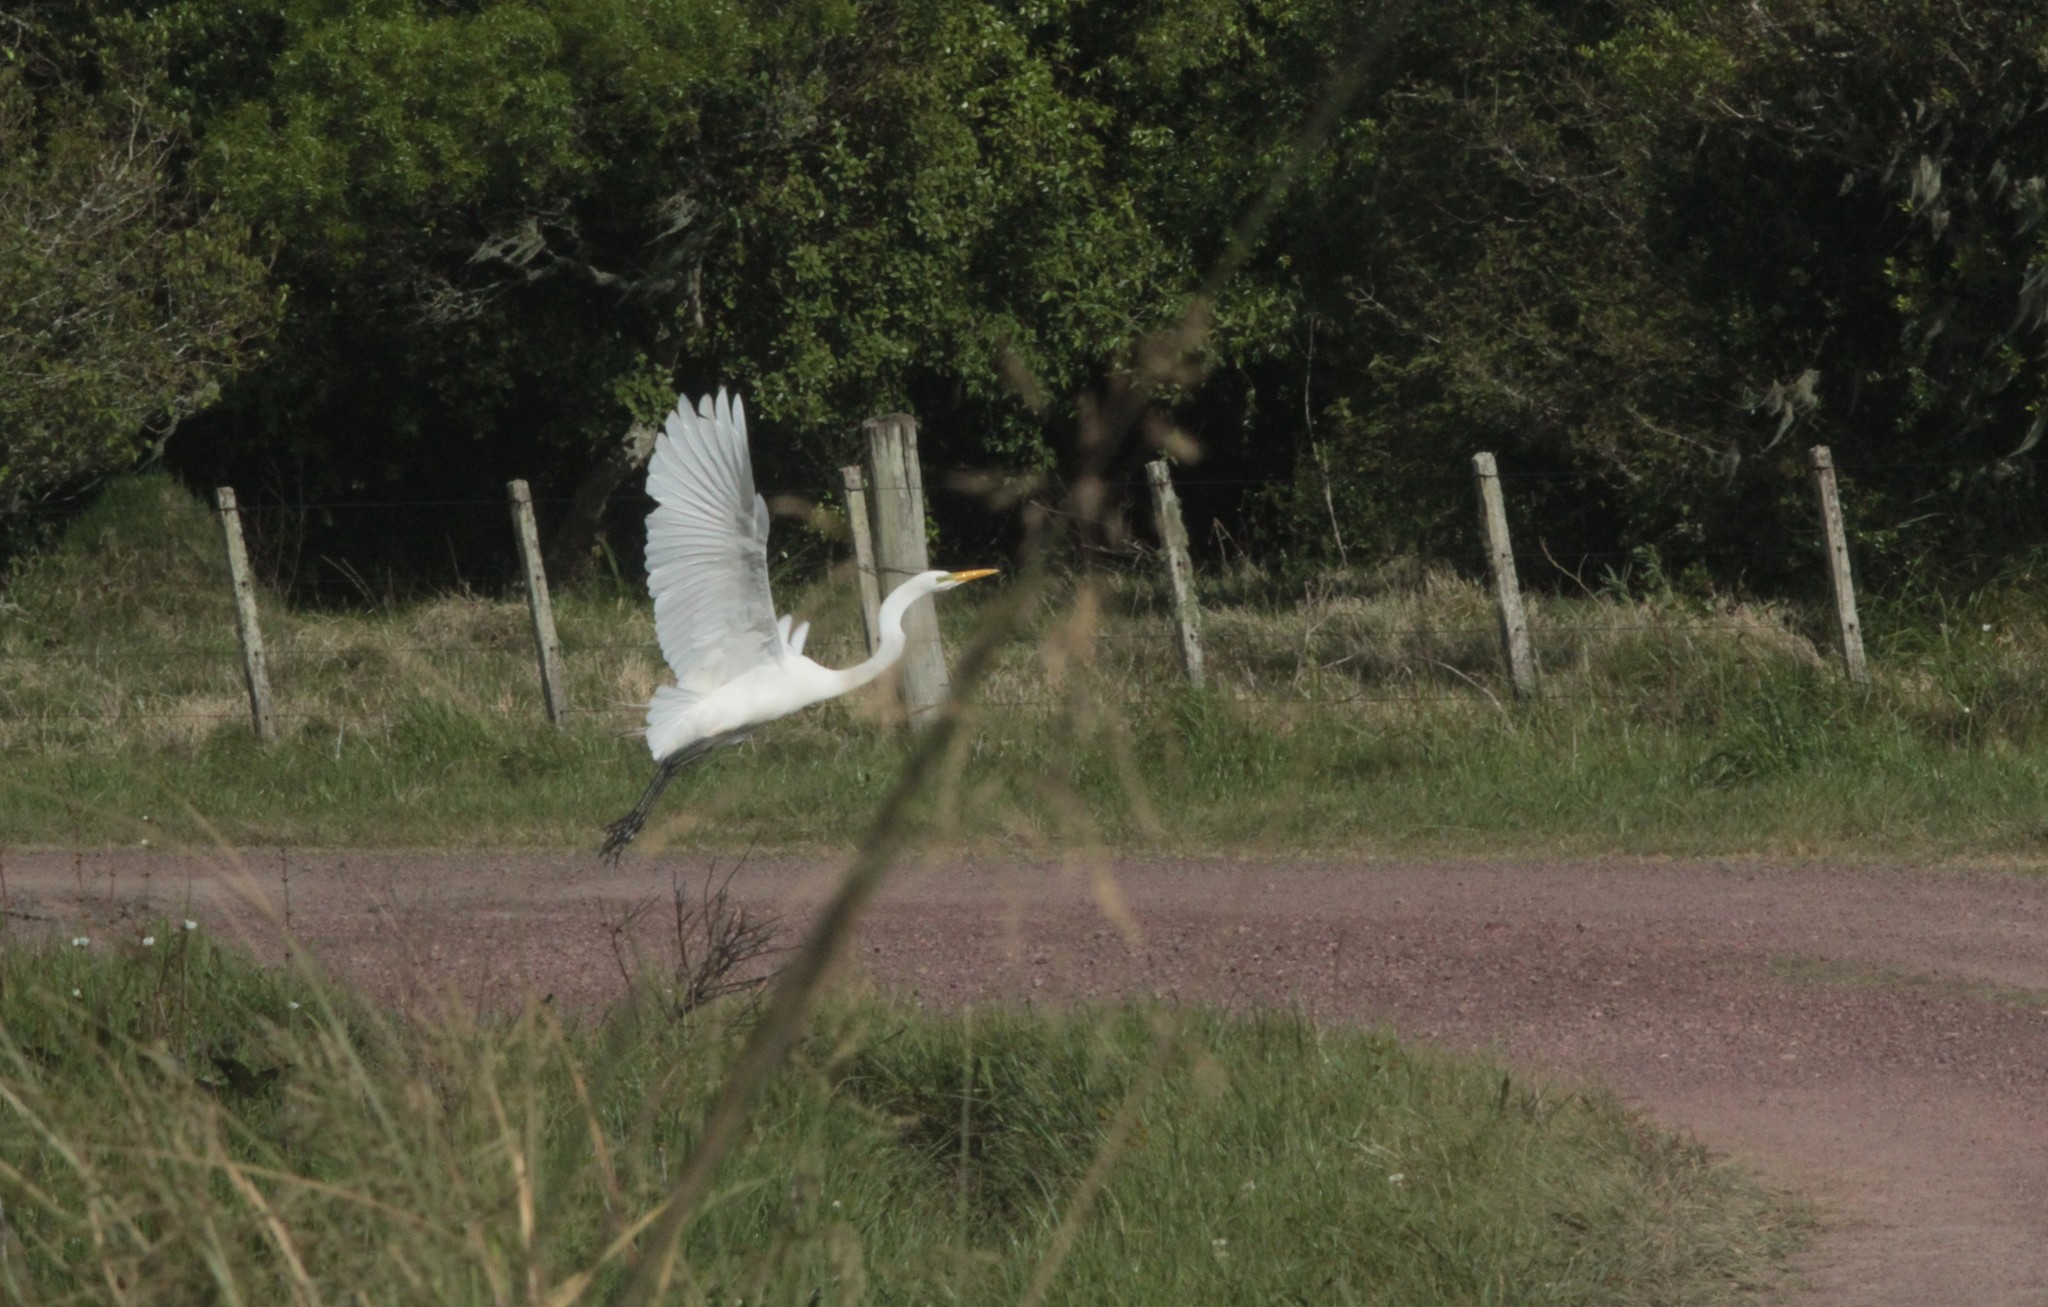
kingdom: Animalia
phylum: Chordata
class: Aves
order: Pelecaniformes
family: Ardeidae
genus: Ardea
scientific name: Ardea alba
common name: Great egret
